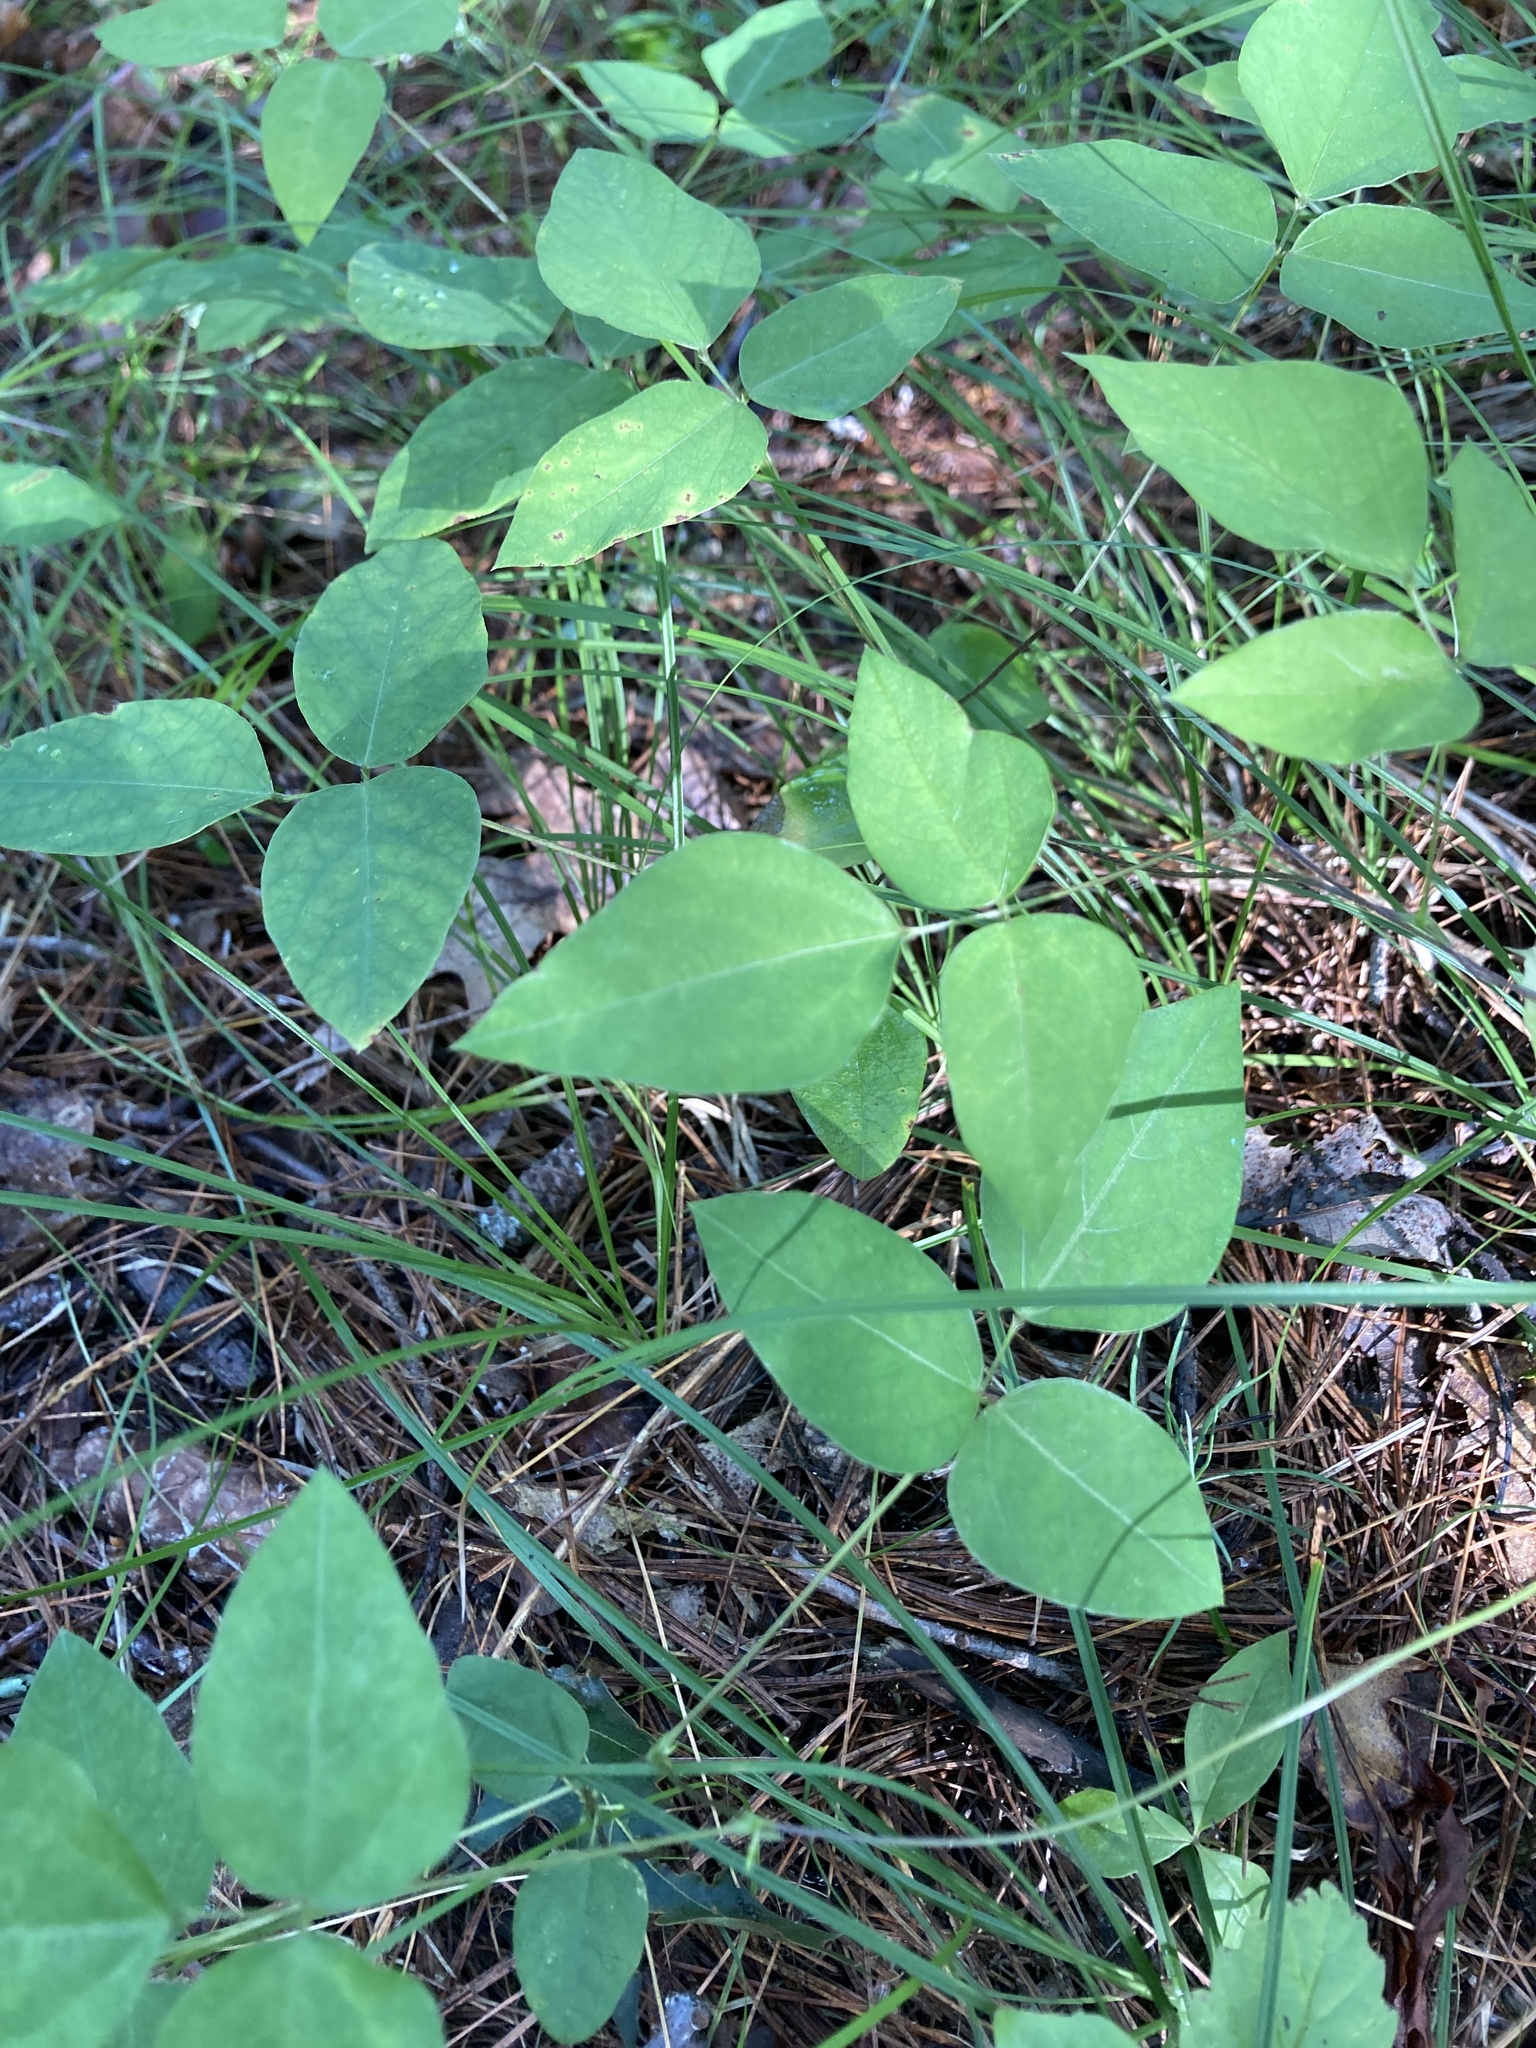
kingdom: Plantae
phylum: Tracheophyta
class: Magnoliopsida
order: Fabales
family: Fabaceae
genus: Amphicarpaea
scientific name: Amphicarpaea bracteata
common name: American hog peanut
